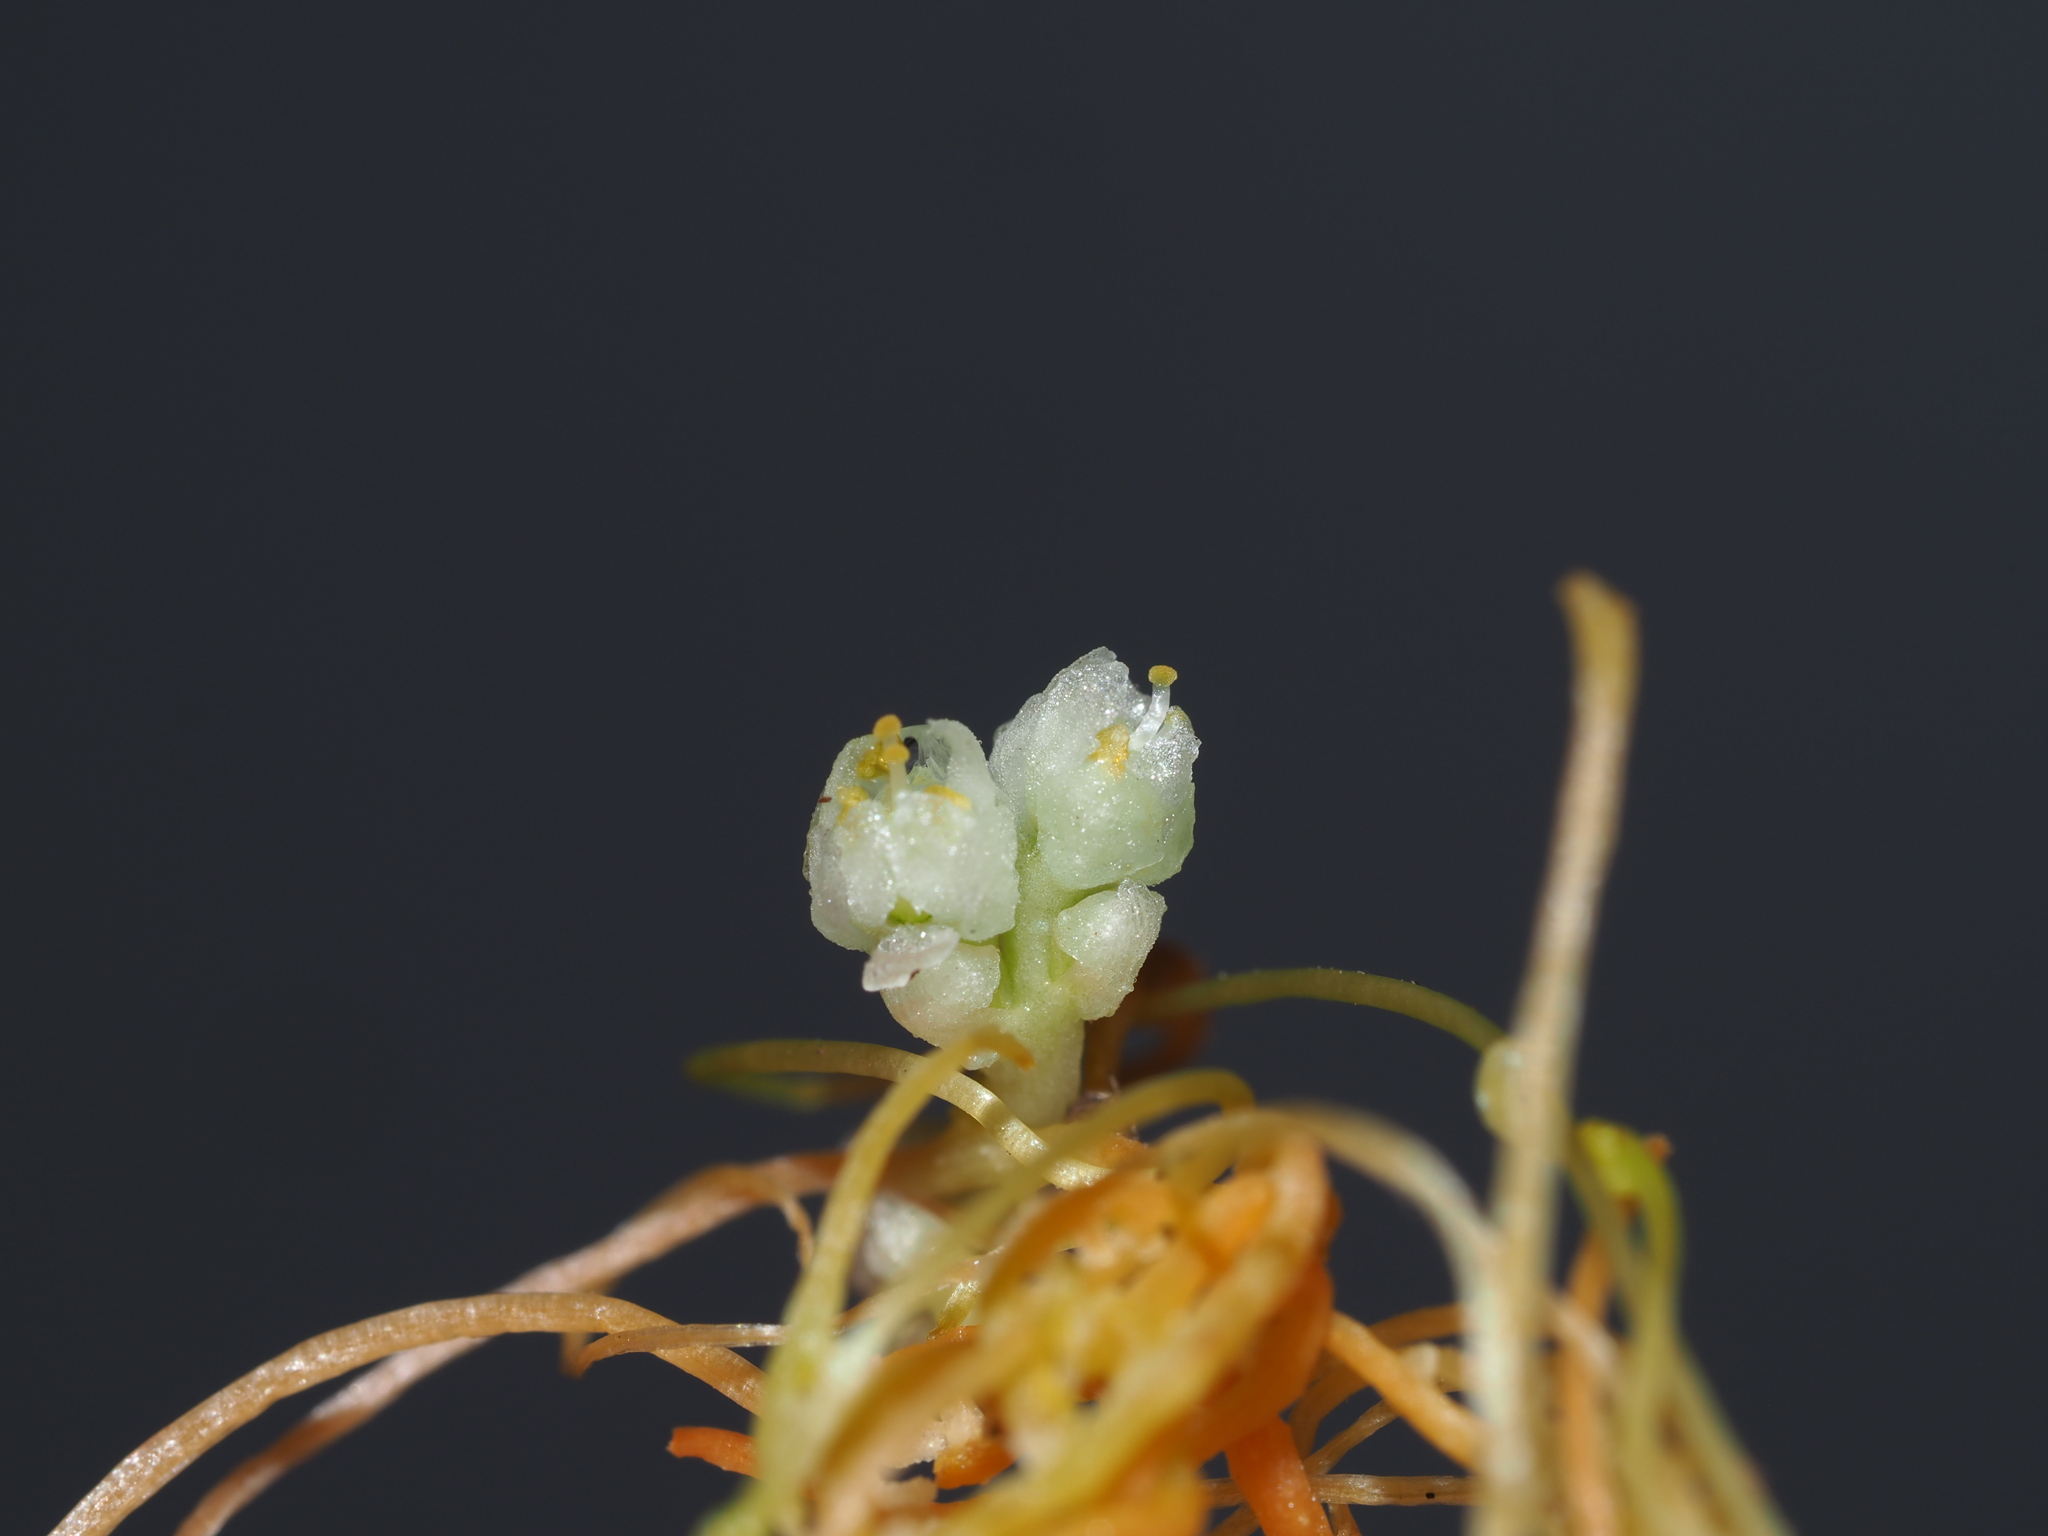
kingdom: Plantae
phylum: Tracheophyta
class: Magnoliopsida
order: Solanales
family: Convolvulaceae
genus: Cuscuta
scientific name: Cuscuta campestris
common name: Yellow dodder
